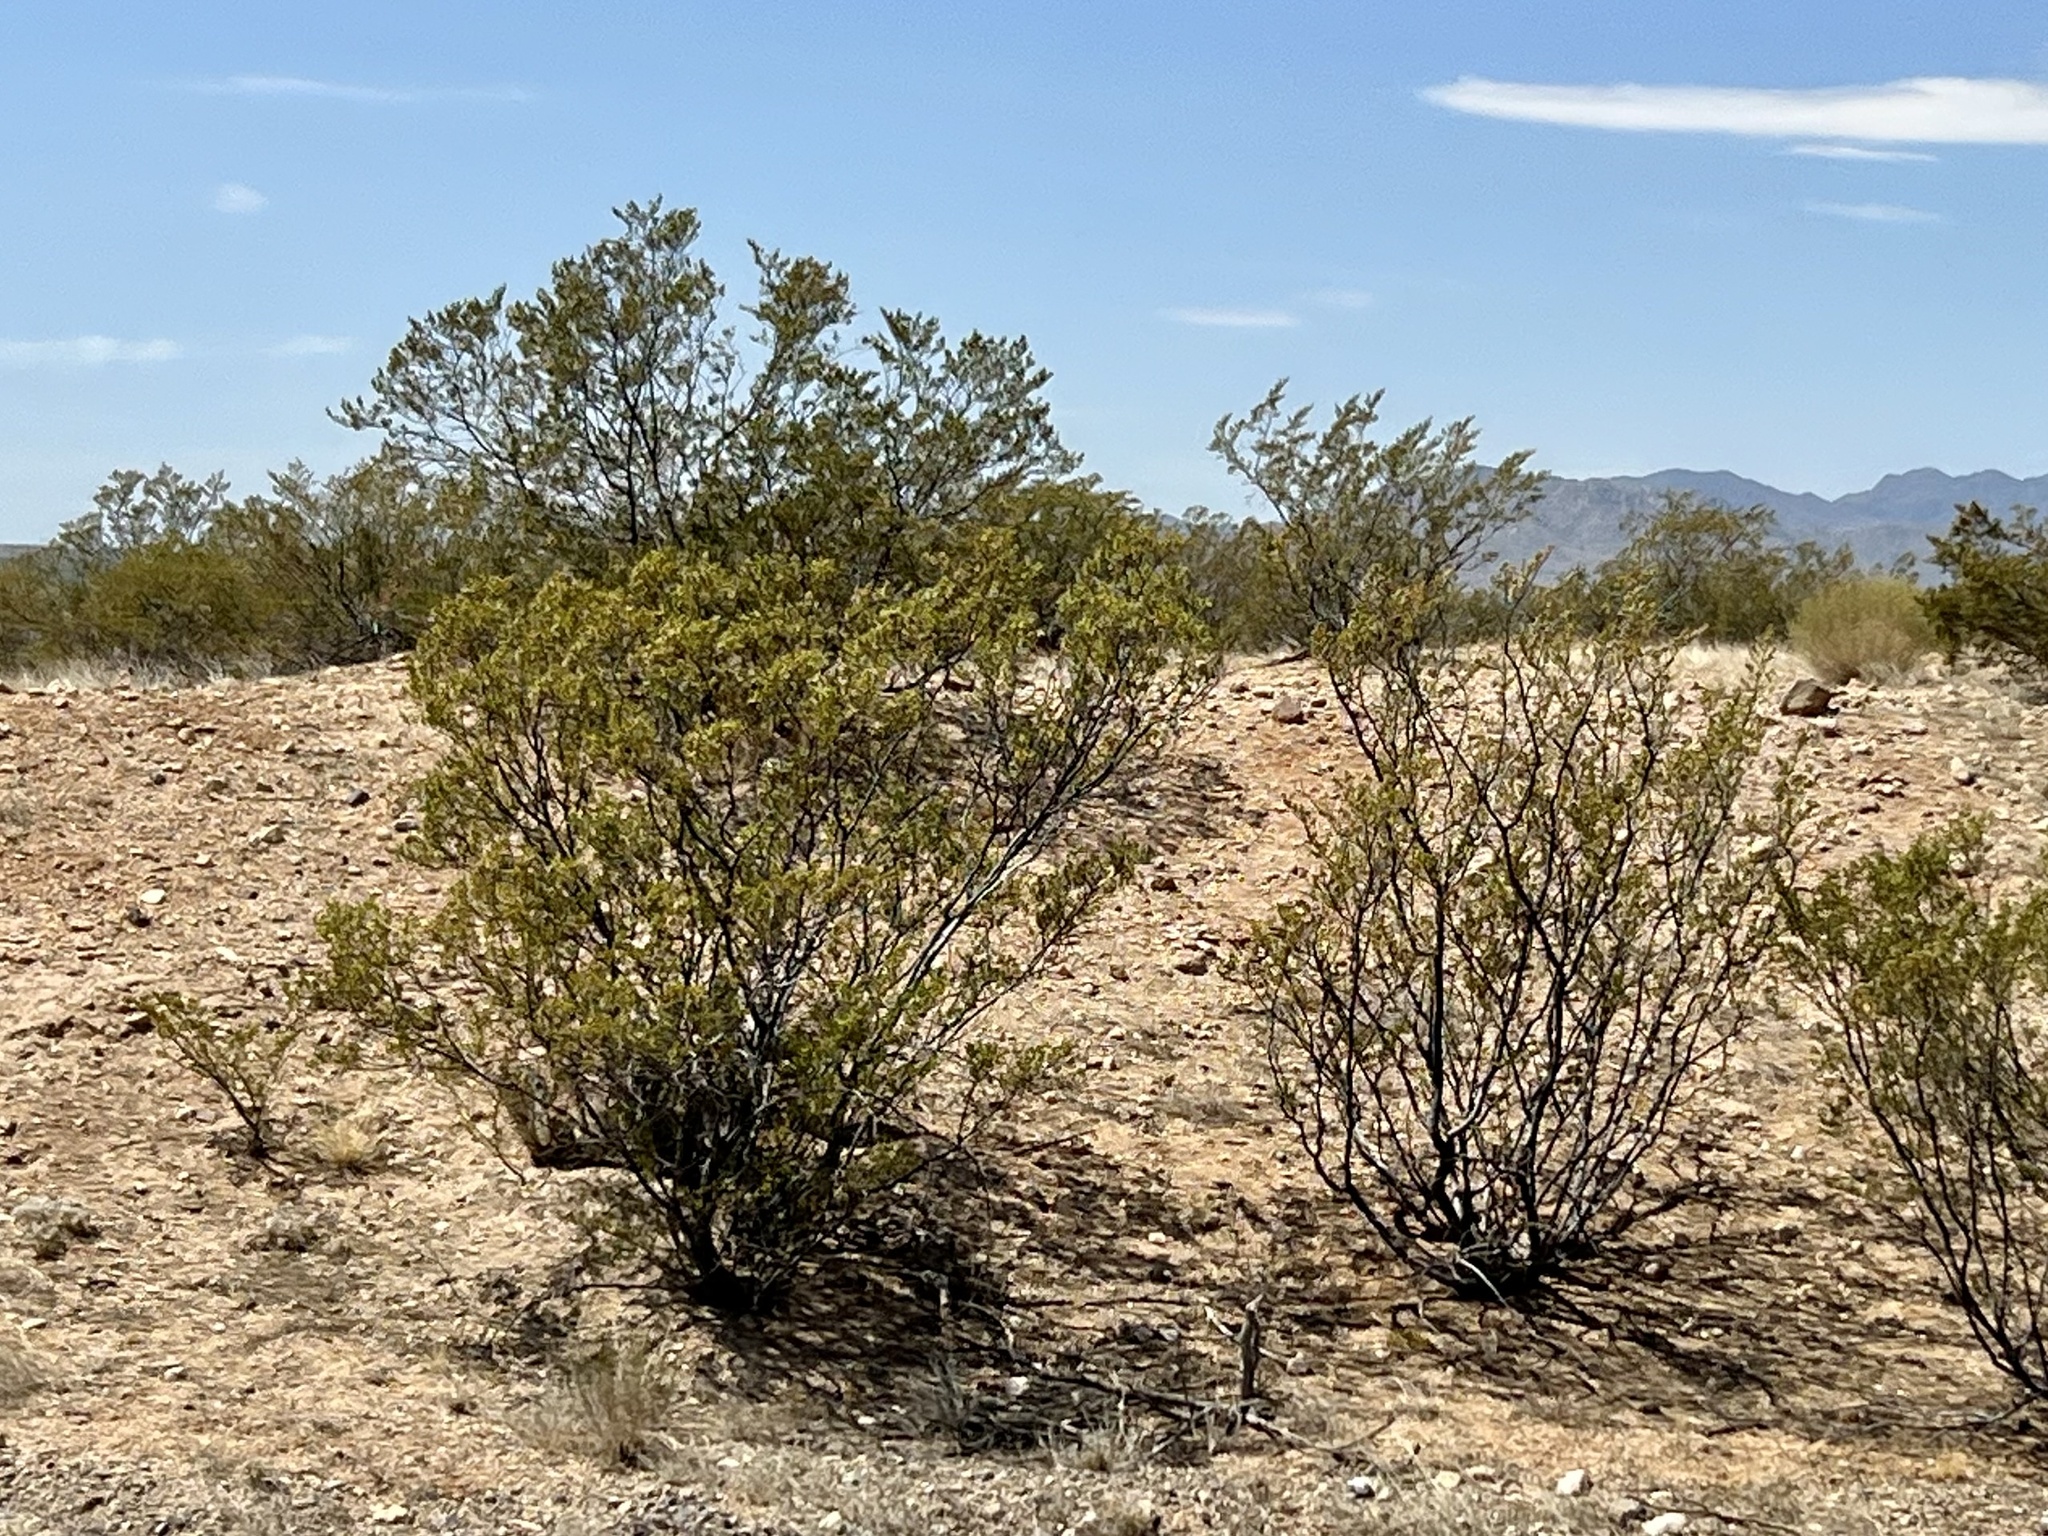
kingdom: Plantae
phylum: Tracheophyta
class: Magnoliopsida
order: Zygophyllales
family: Zygophyllaceae
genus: Larrea
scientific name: Larrea tridentata
